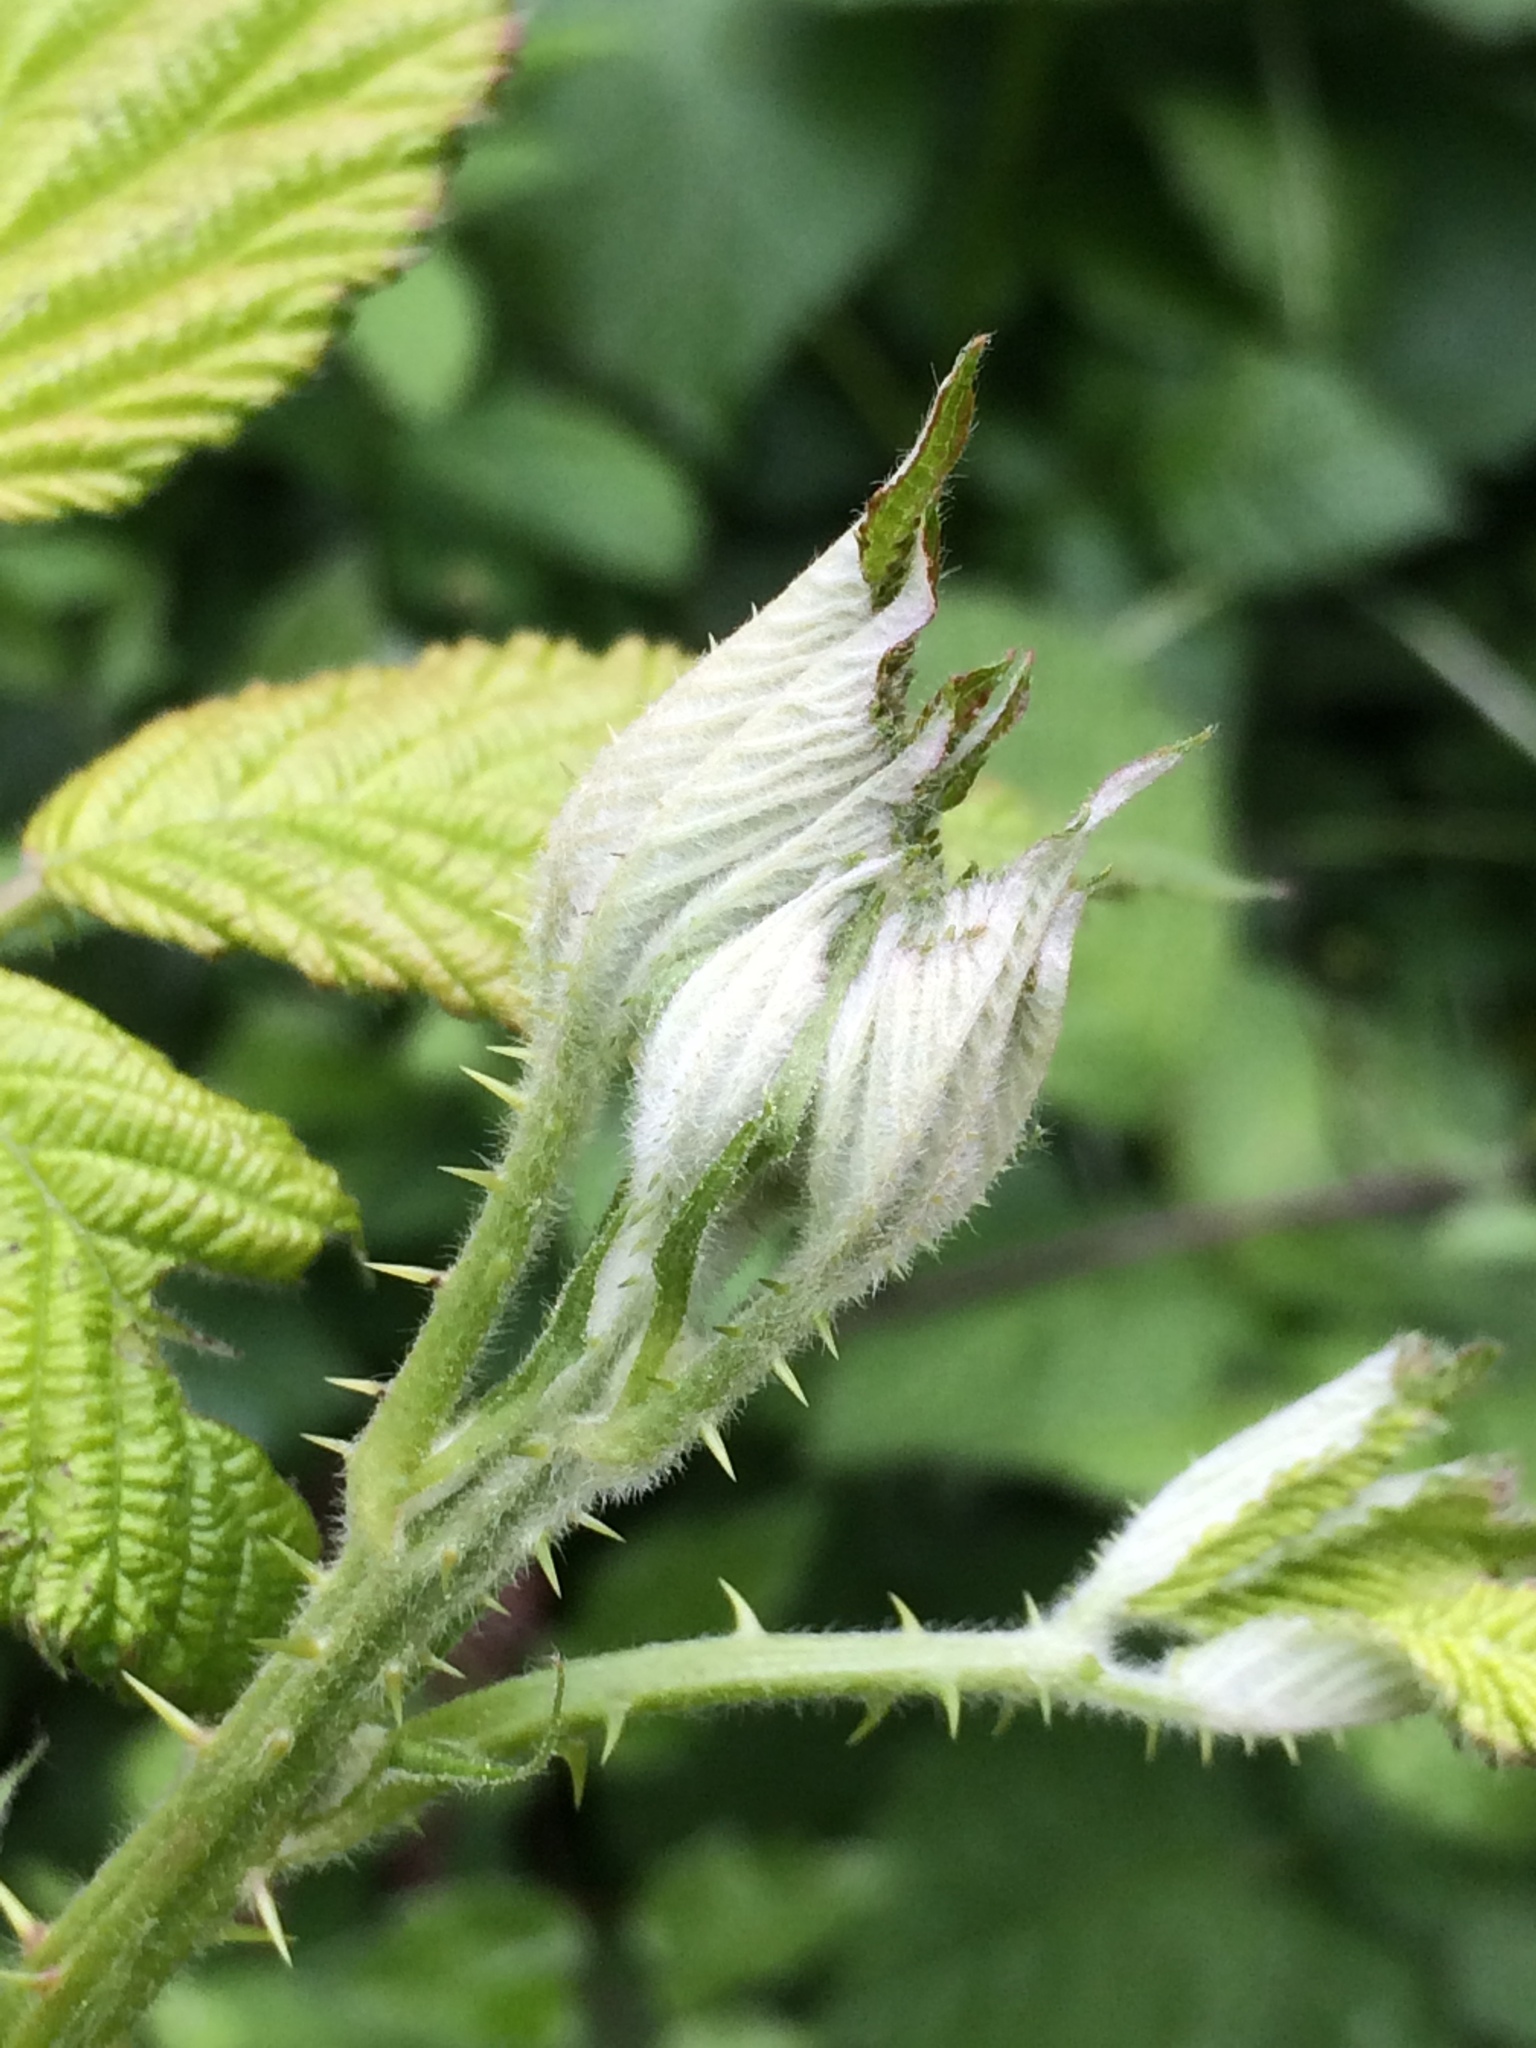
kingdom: Plantae
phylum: Tracheophyta
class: Magnoliopsida
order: Rosales
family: Rosaceae
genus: Rubus
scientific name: Rubus armeniacus
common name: Himalayan blackberry
